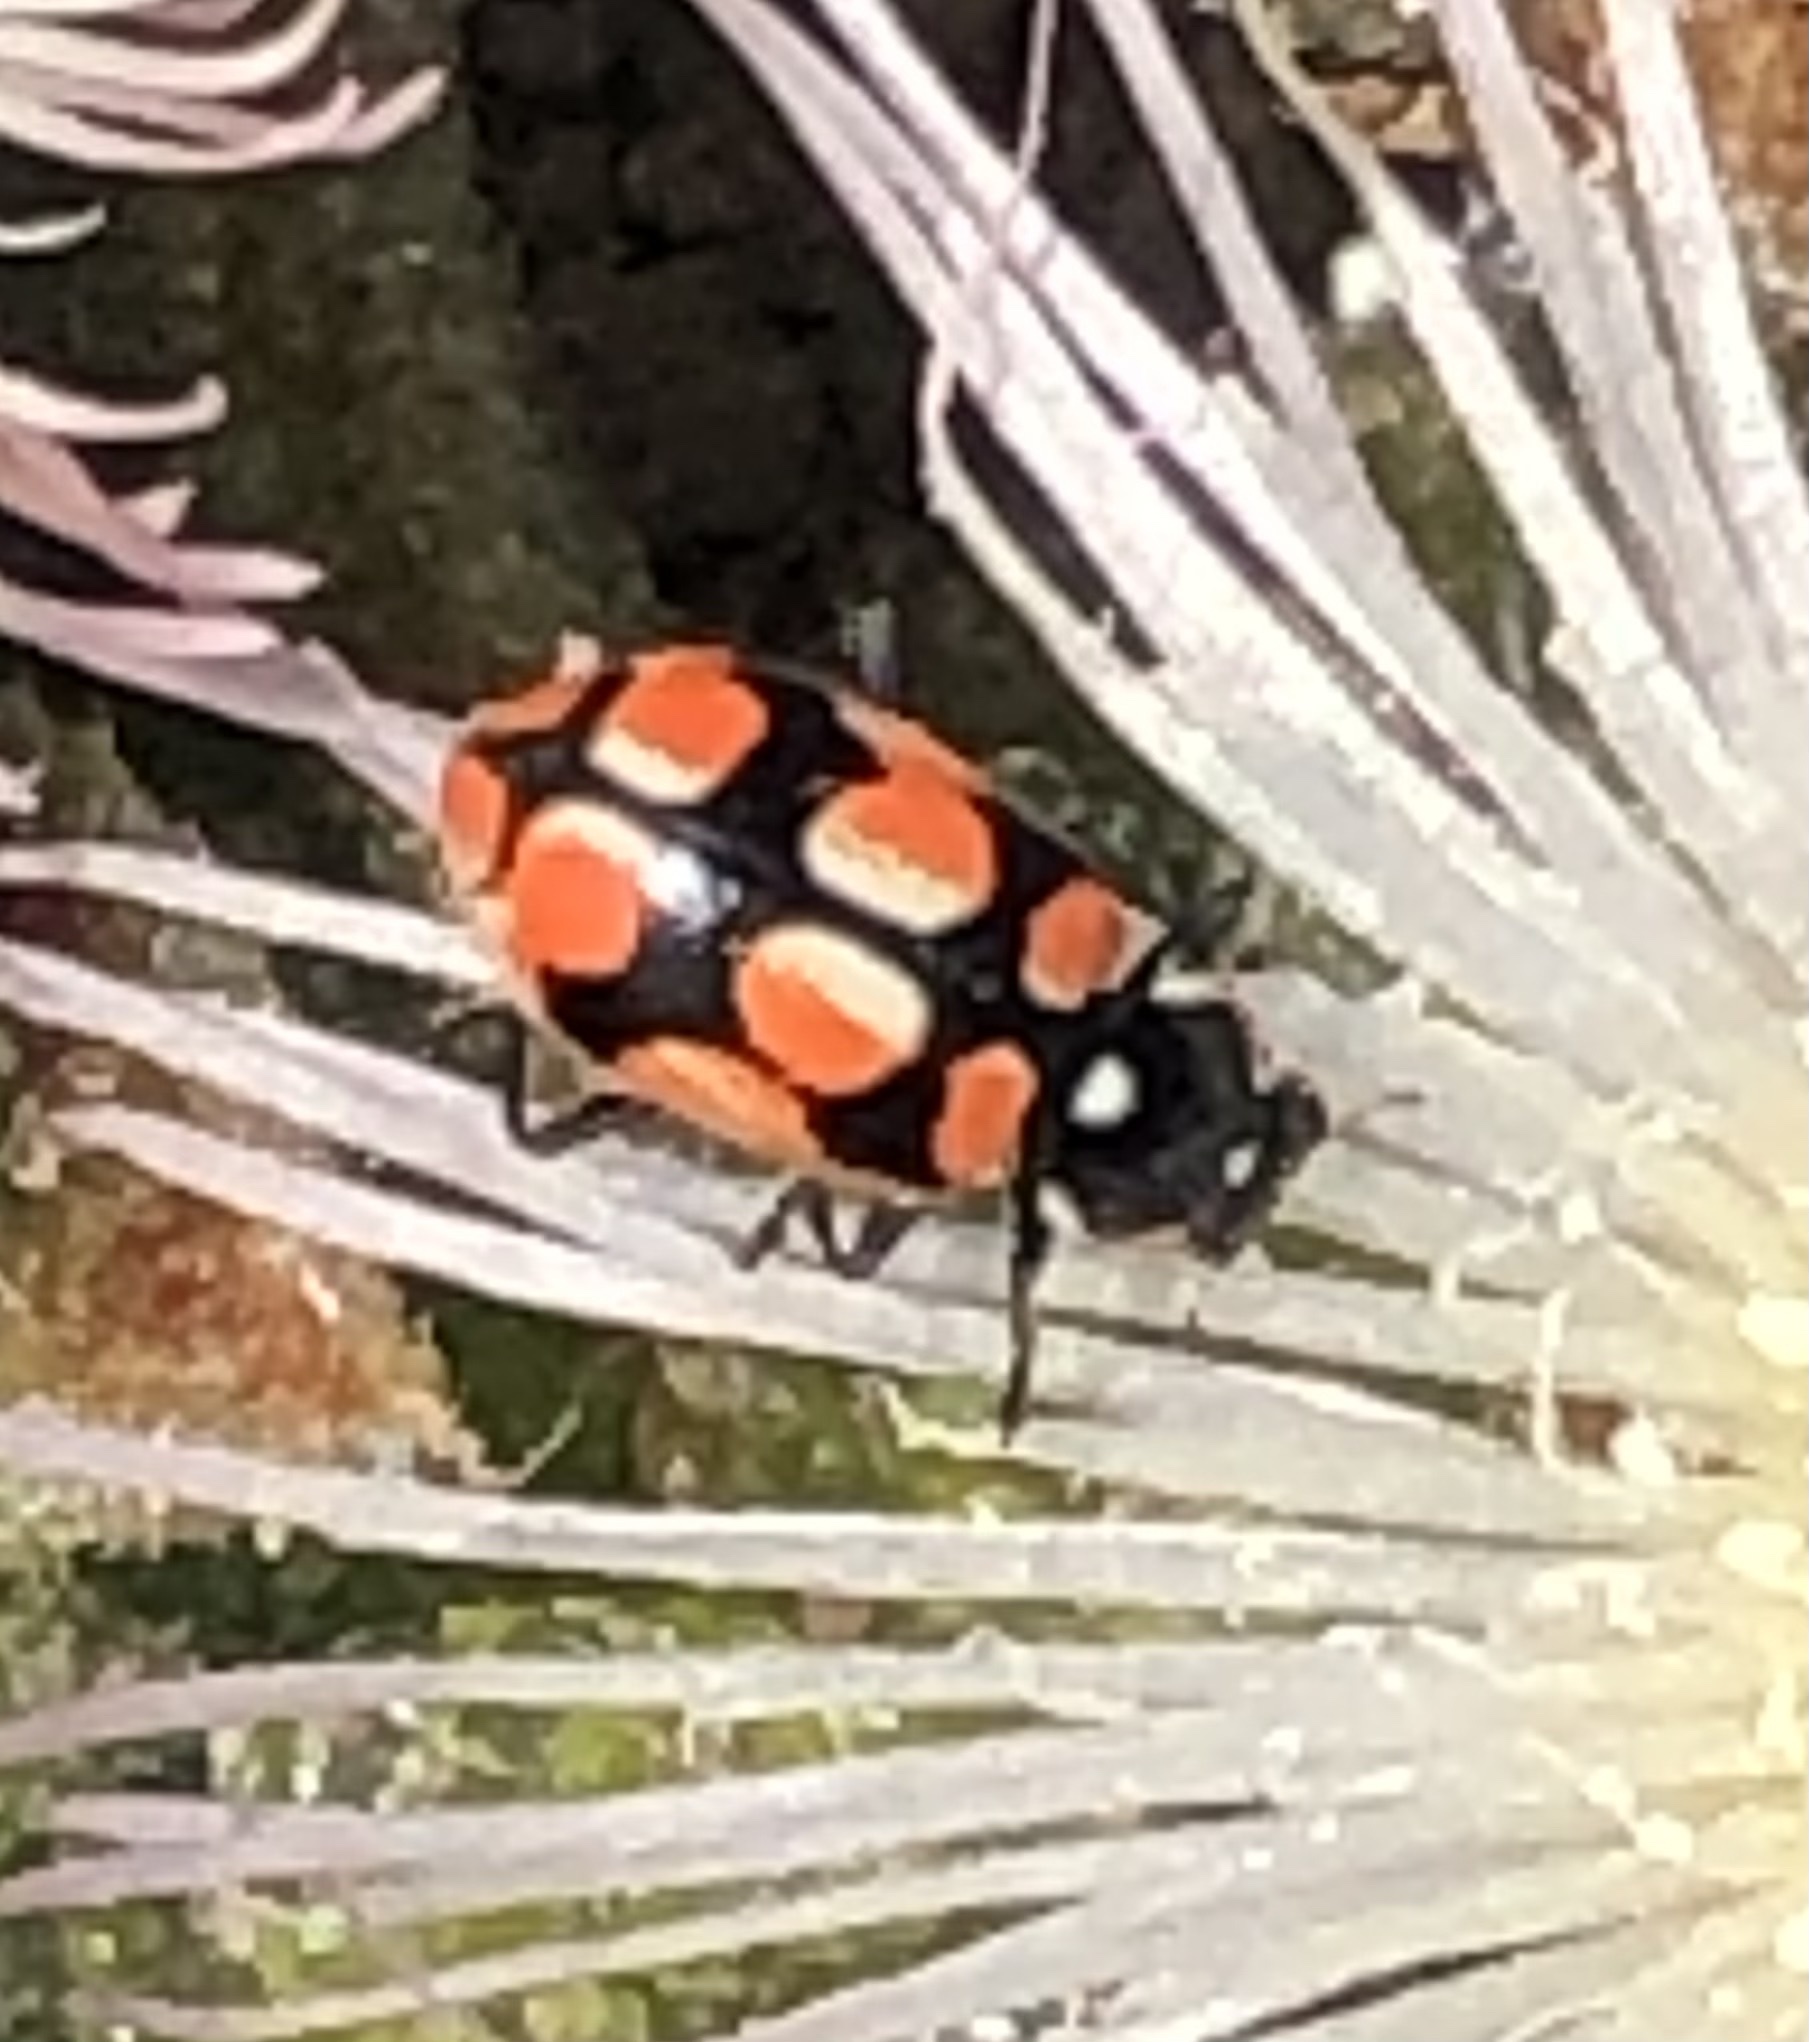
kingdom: Animalia
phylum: Arthropoda
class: Insecta
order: Coleoptera
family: Coccinellidae
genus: Eriopis
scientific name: Eriopis chilensis
